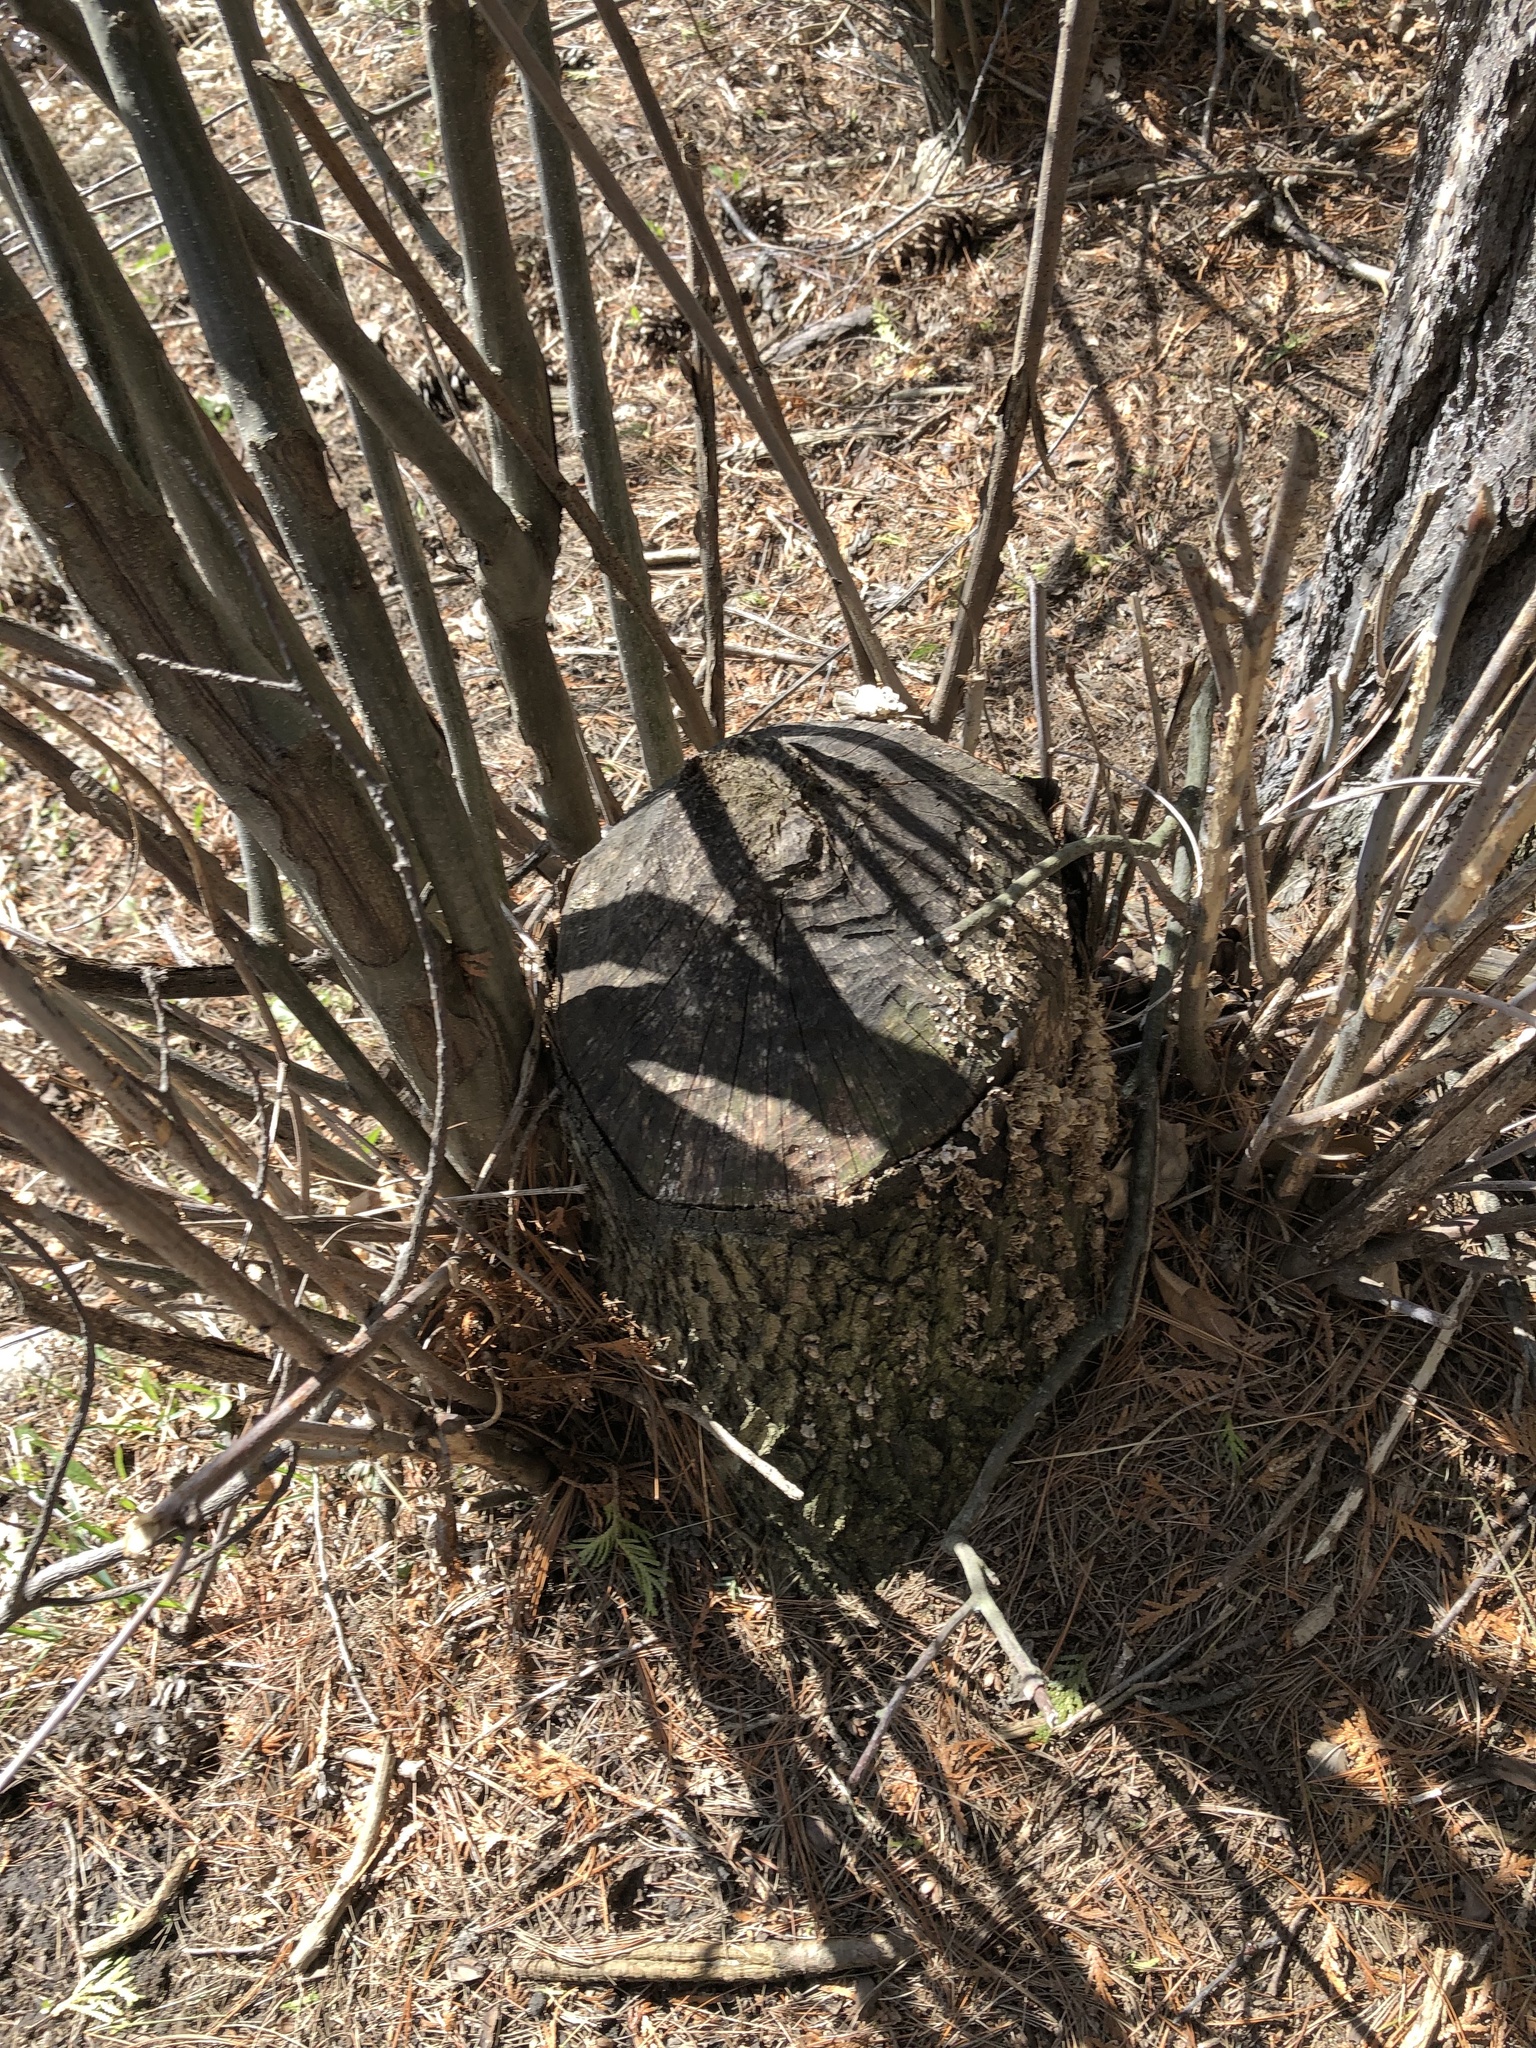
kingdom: Animalia
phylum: Chordata
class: Mammalia
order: Rodentia
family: Castoridae
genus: Castor
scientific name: Castor canadensis
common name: American beaver
